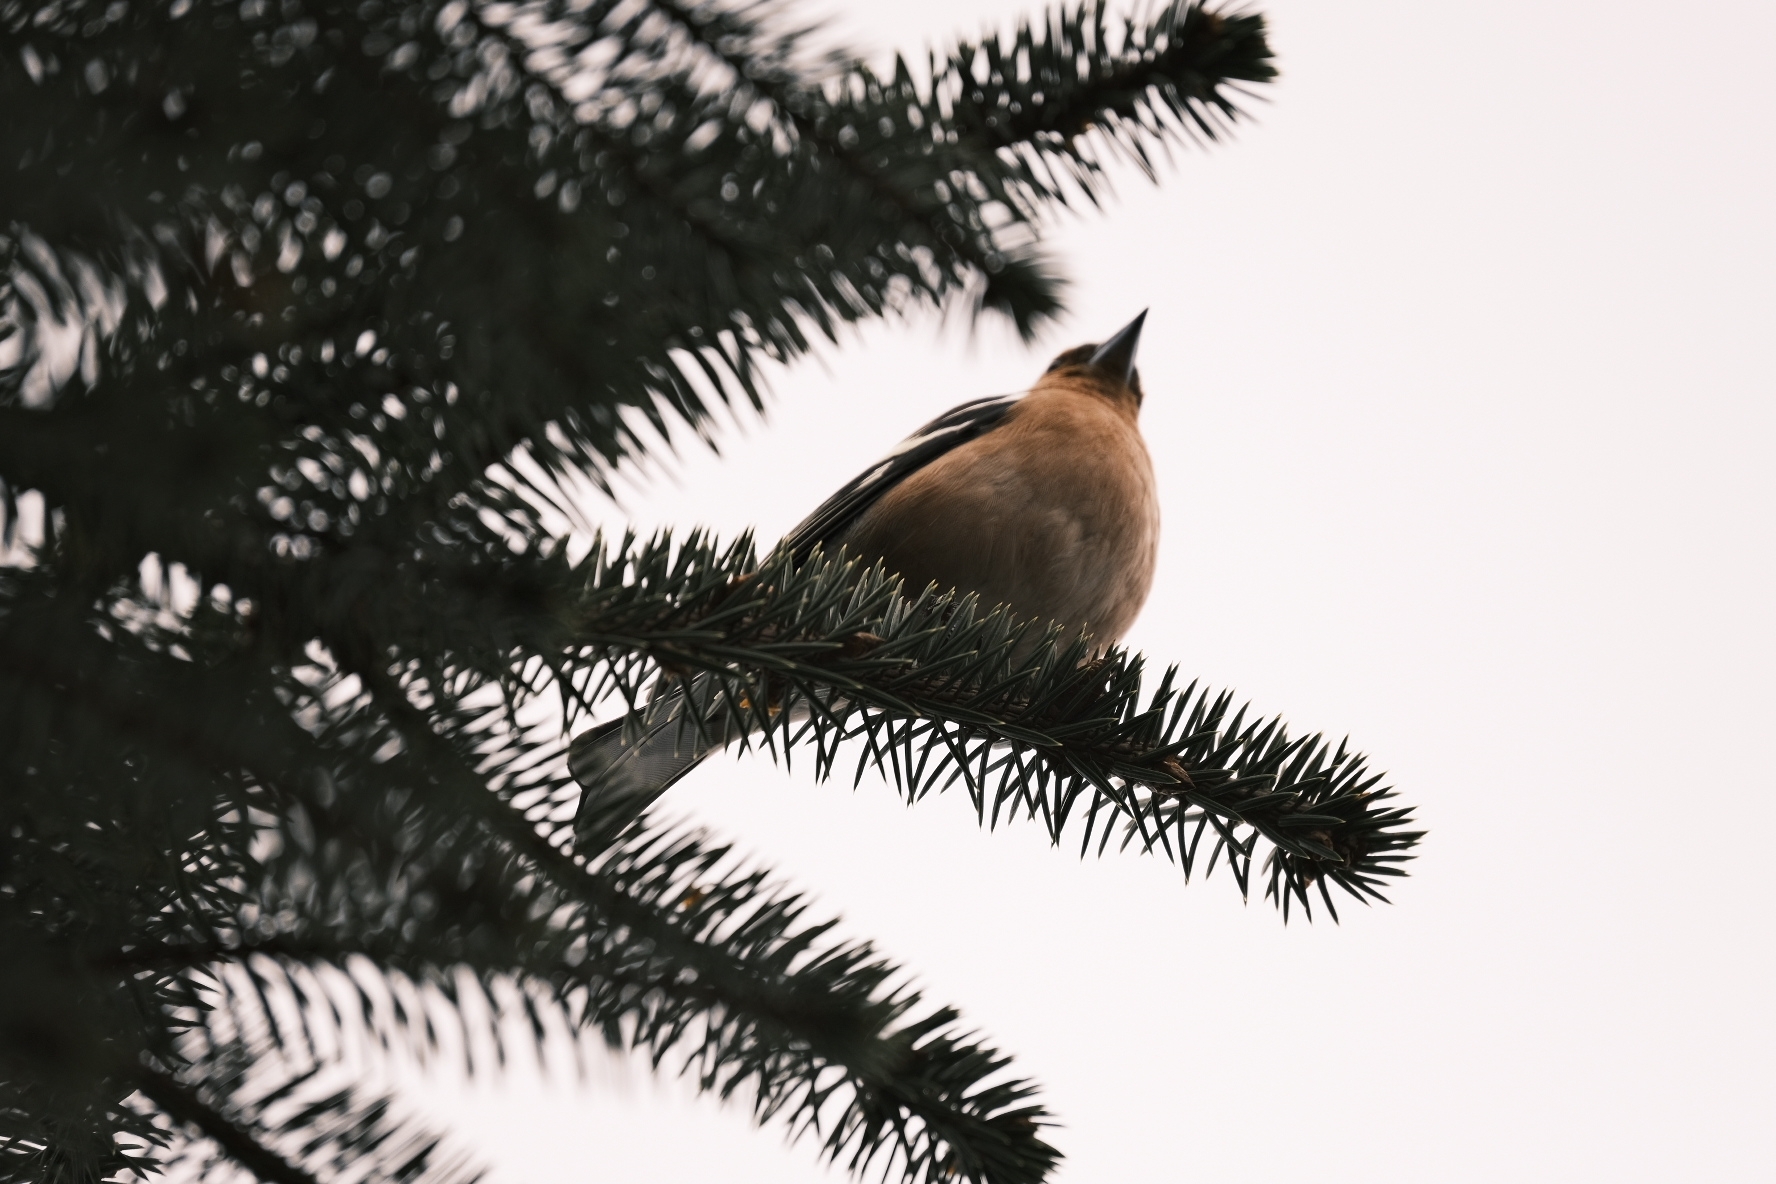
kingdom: Animalia
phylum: Chordata
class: Aves
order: Passeriformes
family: Fringillidae
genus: Fringilla
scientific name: Fringilla coelebs
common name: Common chaffinch
